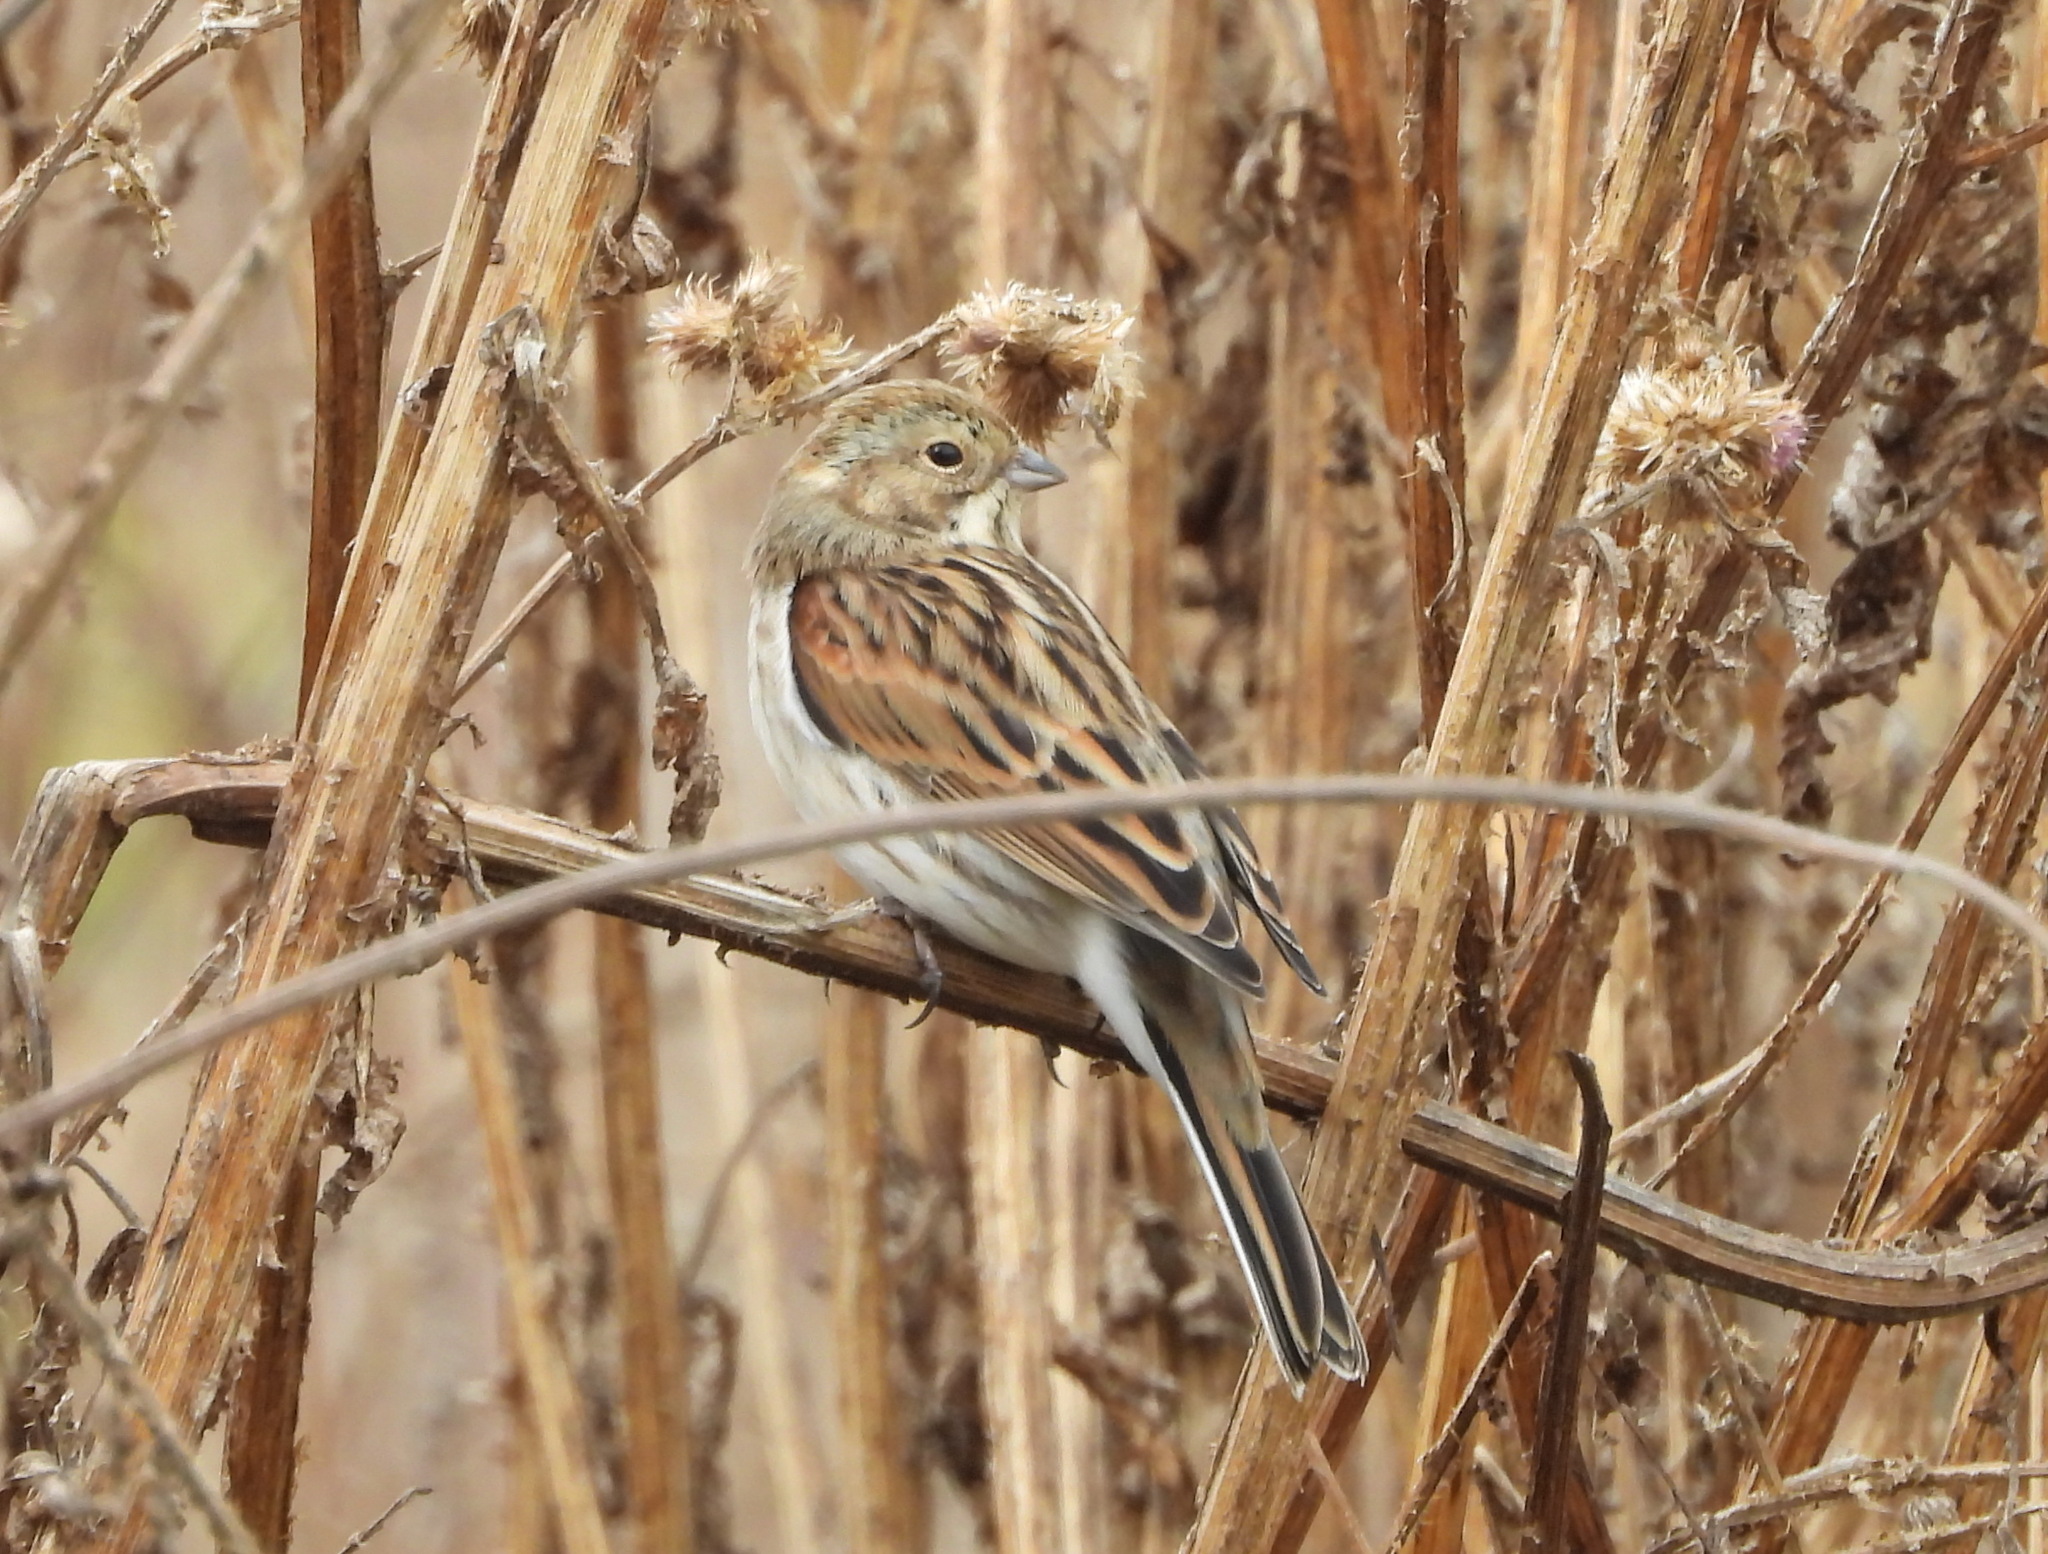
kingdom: Animalia
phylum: Chordata
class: Aves
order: Passeriformes
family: Emberizidae
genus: Emberiza
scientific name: Emberiza schoeniclus
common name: Reed bunting
